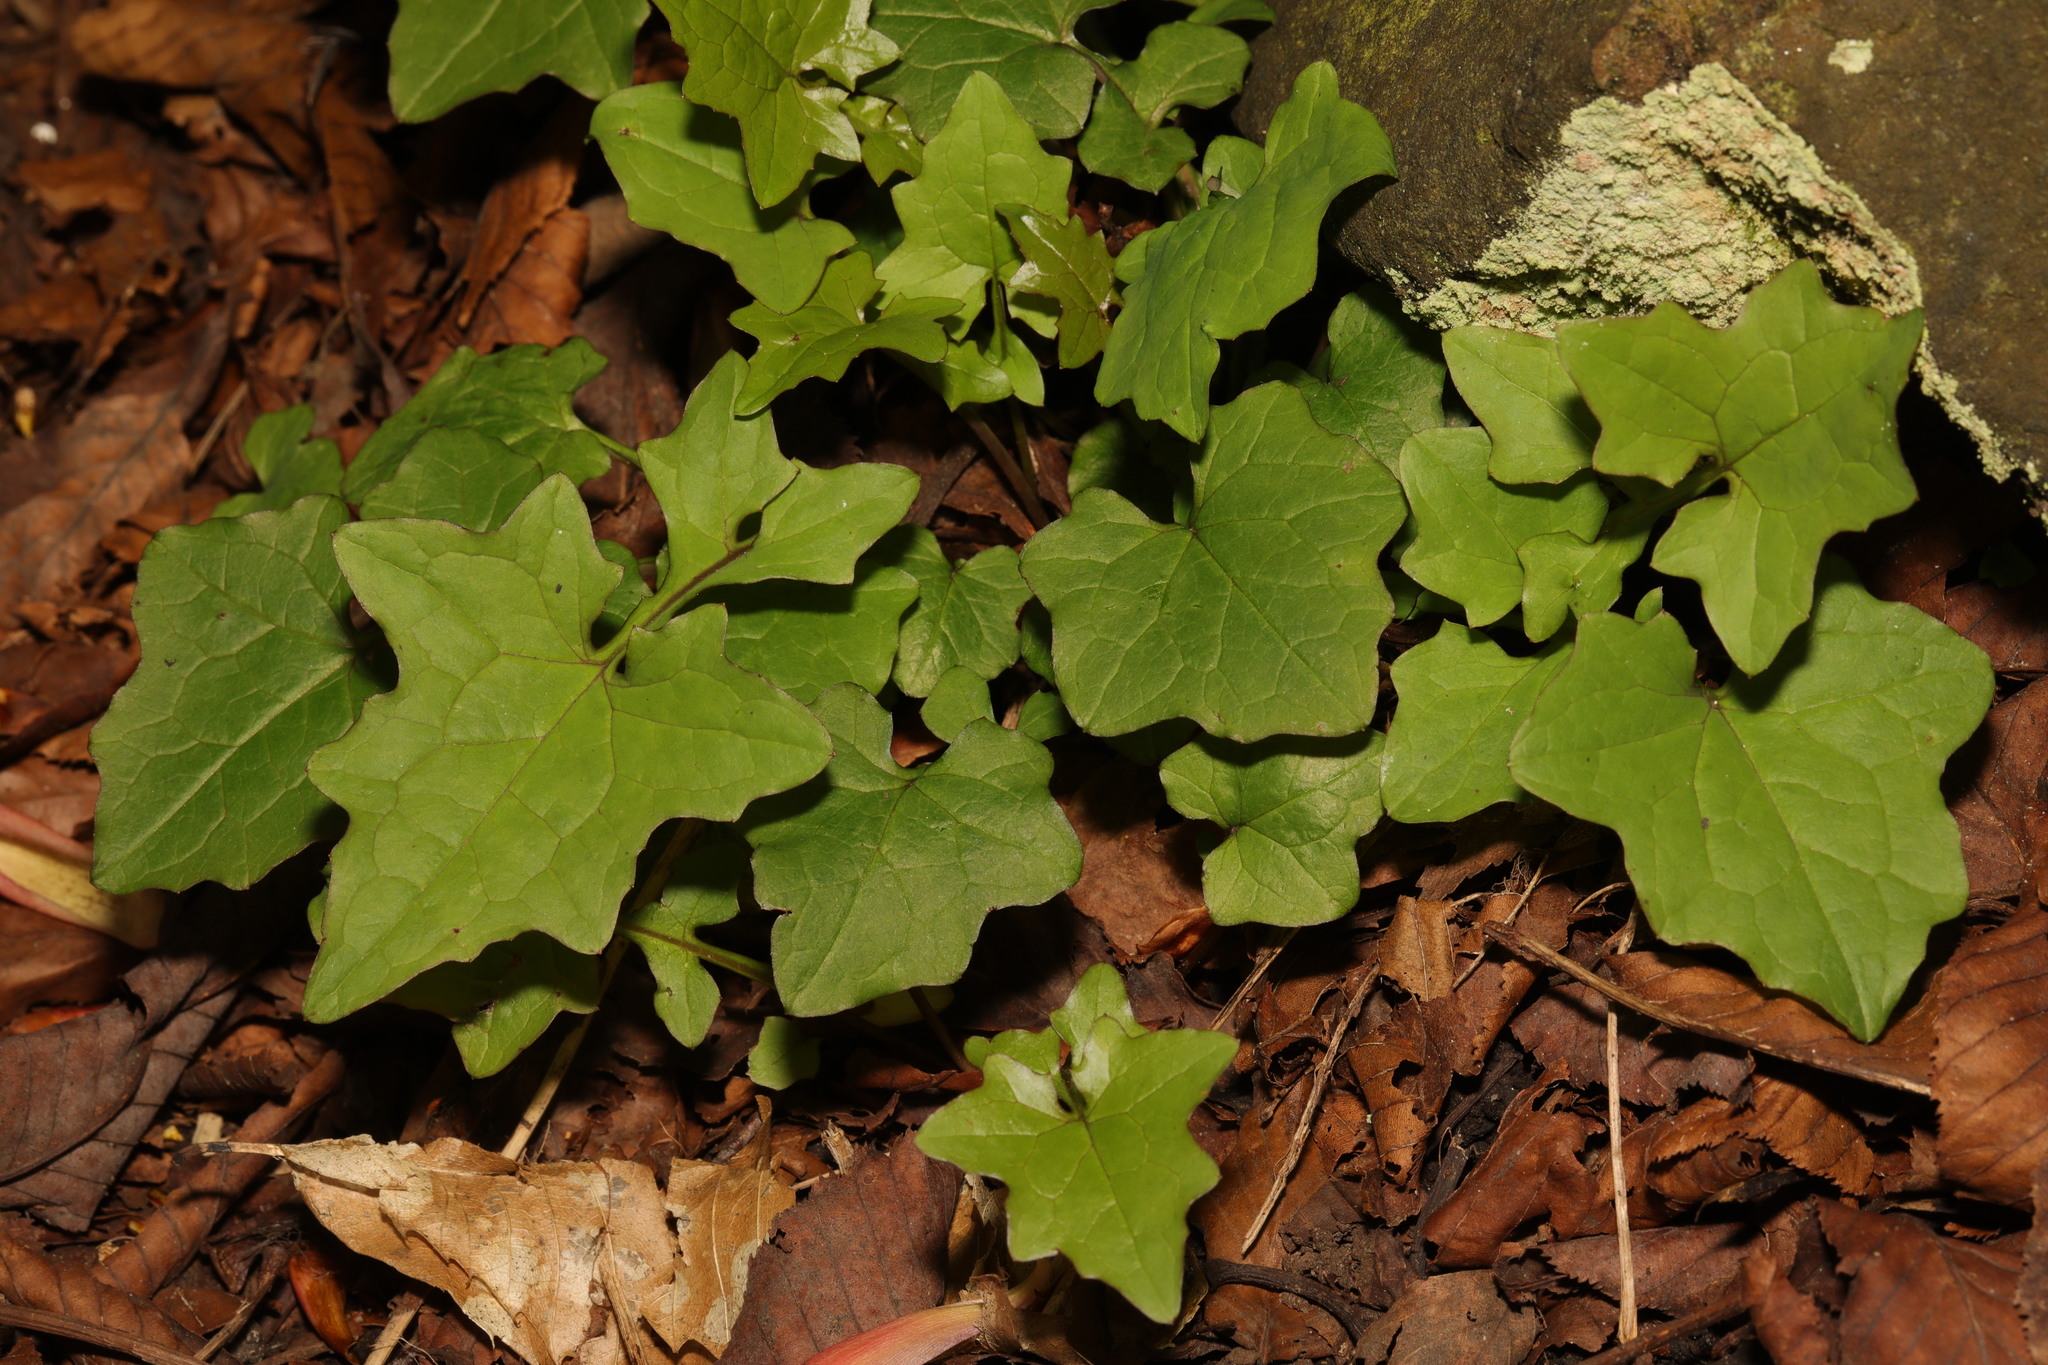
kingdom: Plantae
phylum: Tracheophyta
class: Magnoliopsida
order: Asterales
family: Asteraceae
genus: Mycelis
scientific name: Mycelis muralis
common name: Wall lettuce
